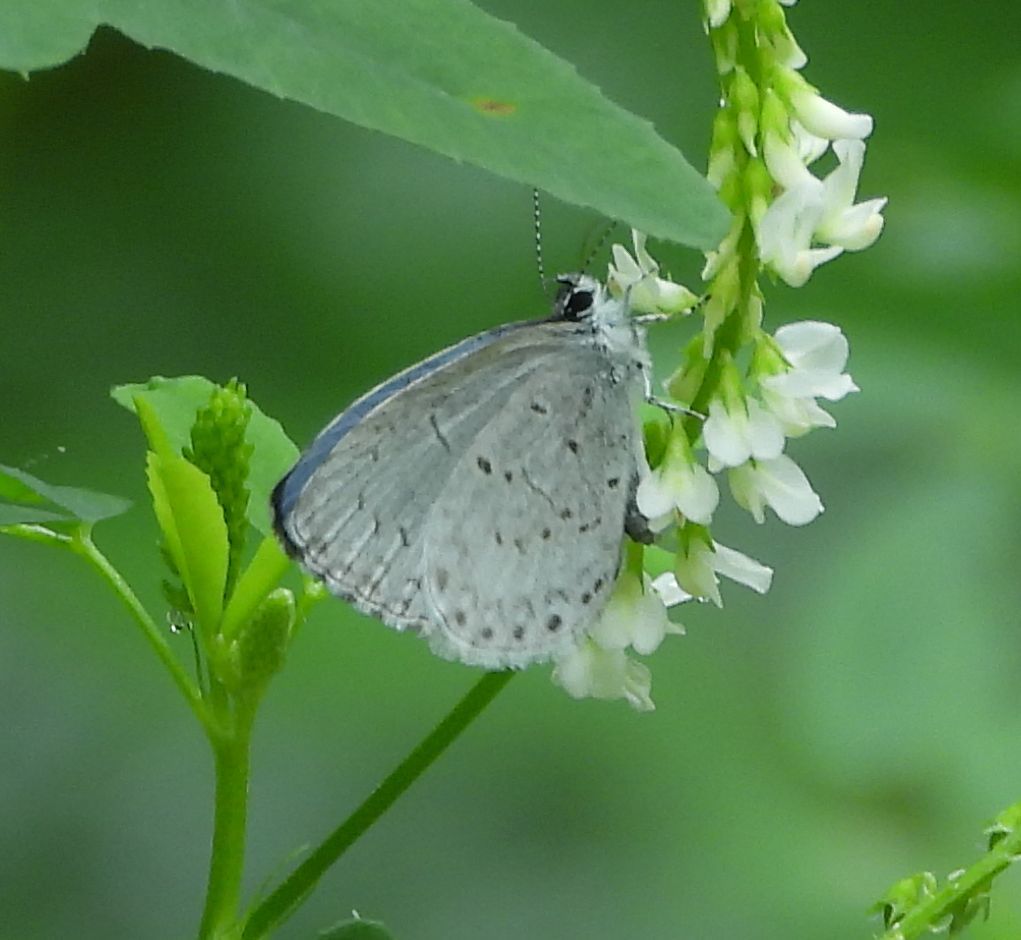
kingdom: Animalia
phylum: Arthropoda
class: Insecta
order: Lepidoptera
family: Lycaenidae
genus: Celastrina
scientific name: Celastrina lucia
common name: Lucia azure
